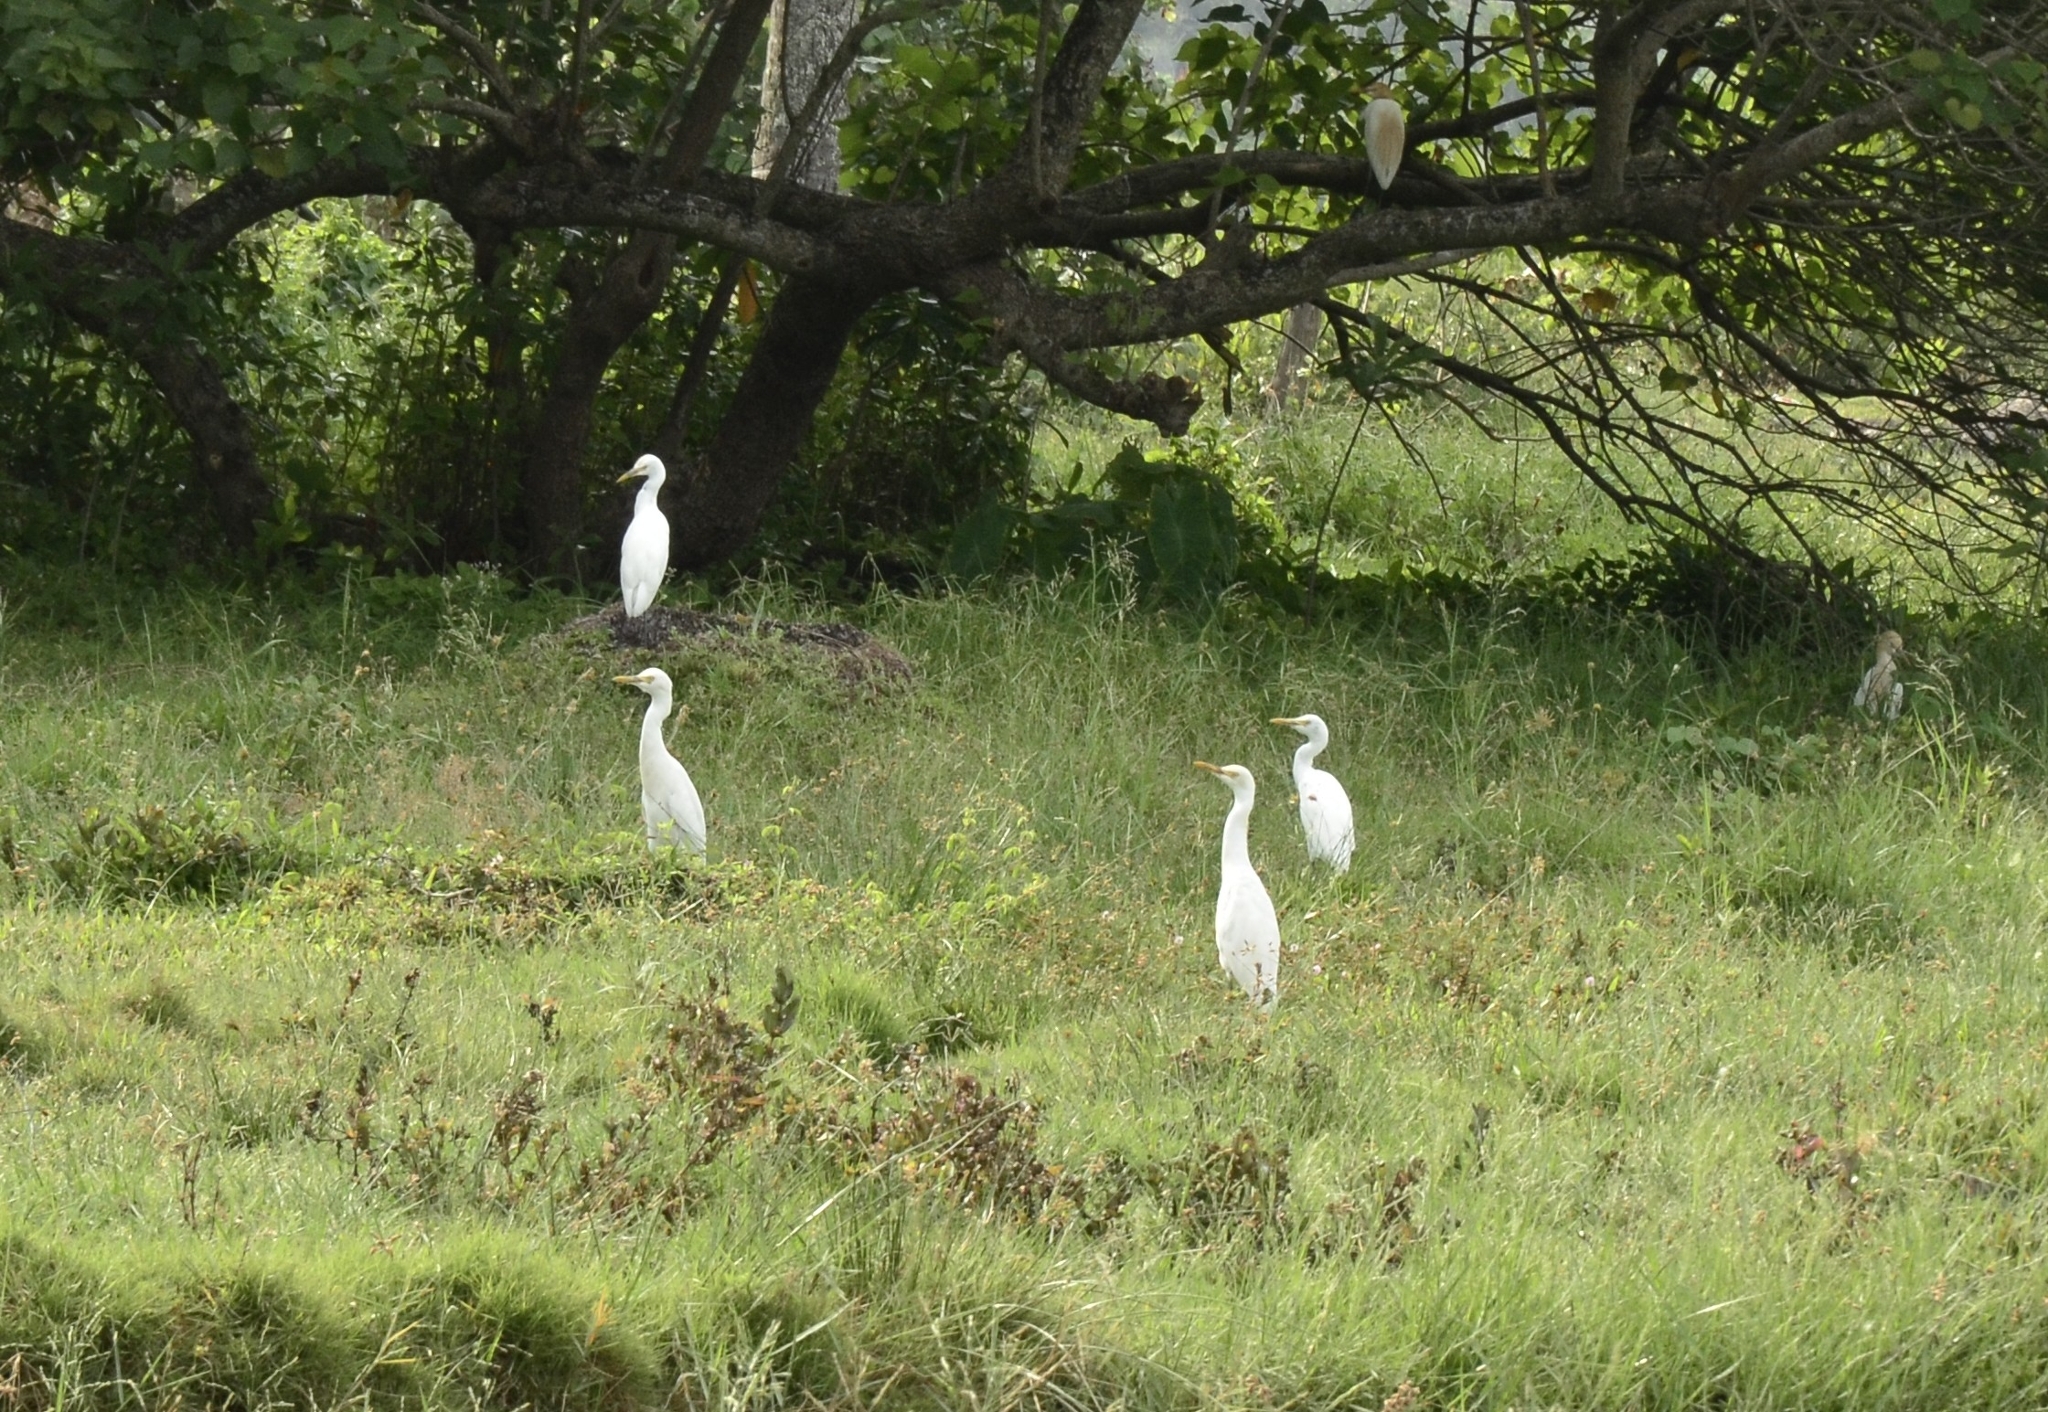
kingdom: Animalia
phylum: Chordata
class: Aves
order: Pelecaniformes
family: Ardeidae
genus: Bubulcus
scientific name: Bubulcus coromandus
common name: Eastern cattle egret
